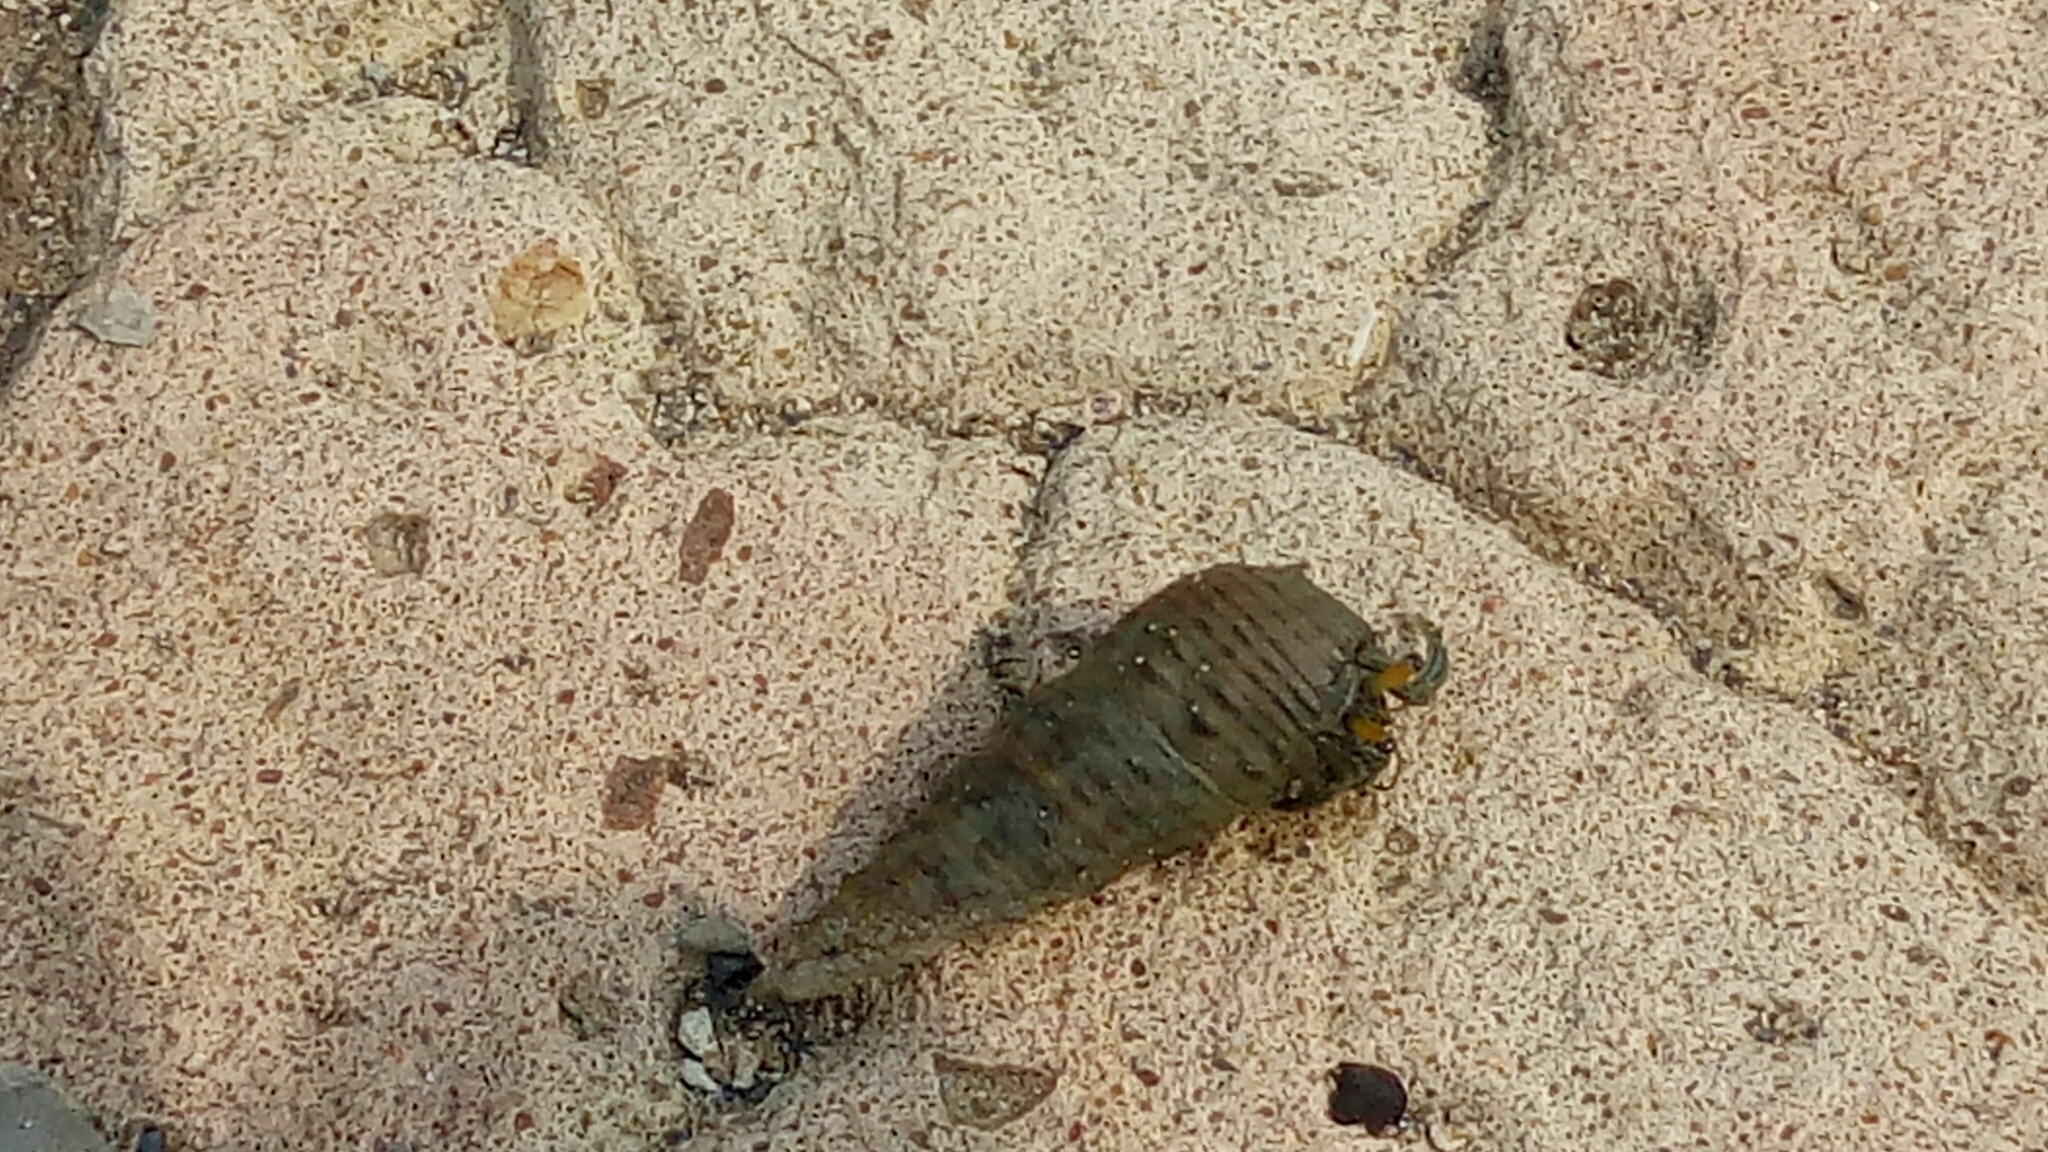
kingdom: Animalia
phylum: Arthropoda
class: Malacostraca
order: Decapoda
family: Diogenidae
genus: Clibanarius
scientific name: Clibanarius longitarsus
